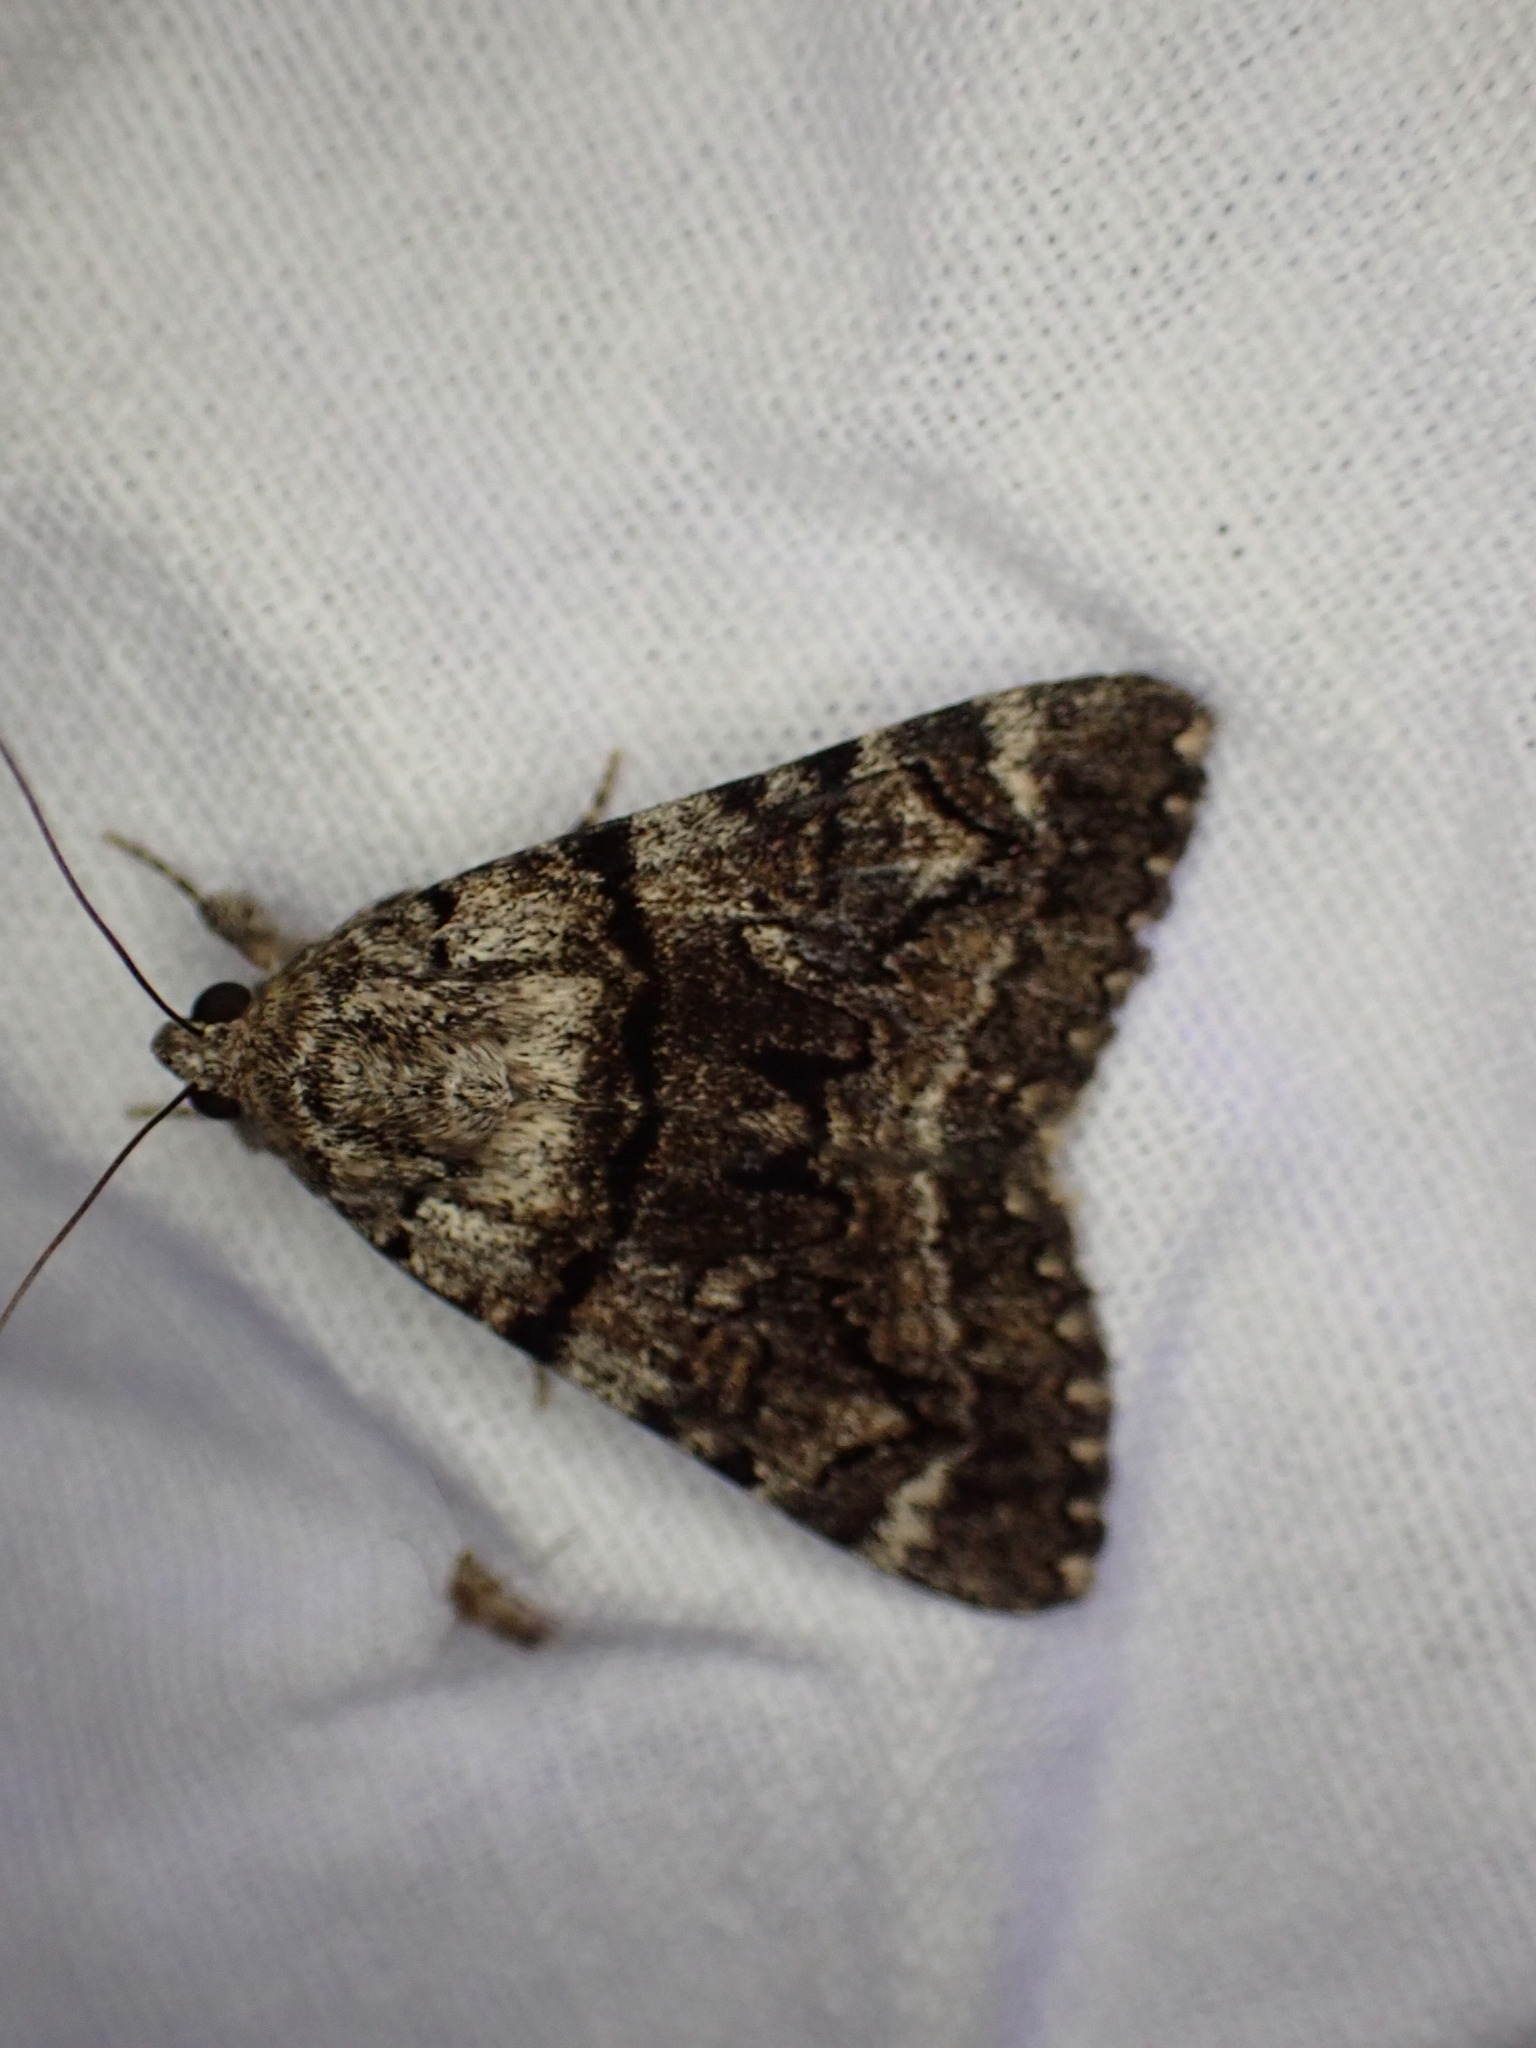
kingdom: Animalia
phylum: Arthropoda
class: Insecta
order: Lepidoptera
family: Erebidae
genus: Catocala
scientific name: Catocala nymphagoga
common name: Oak yellow underwing
